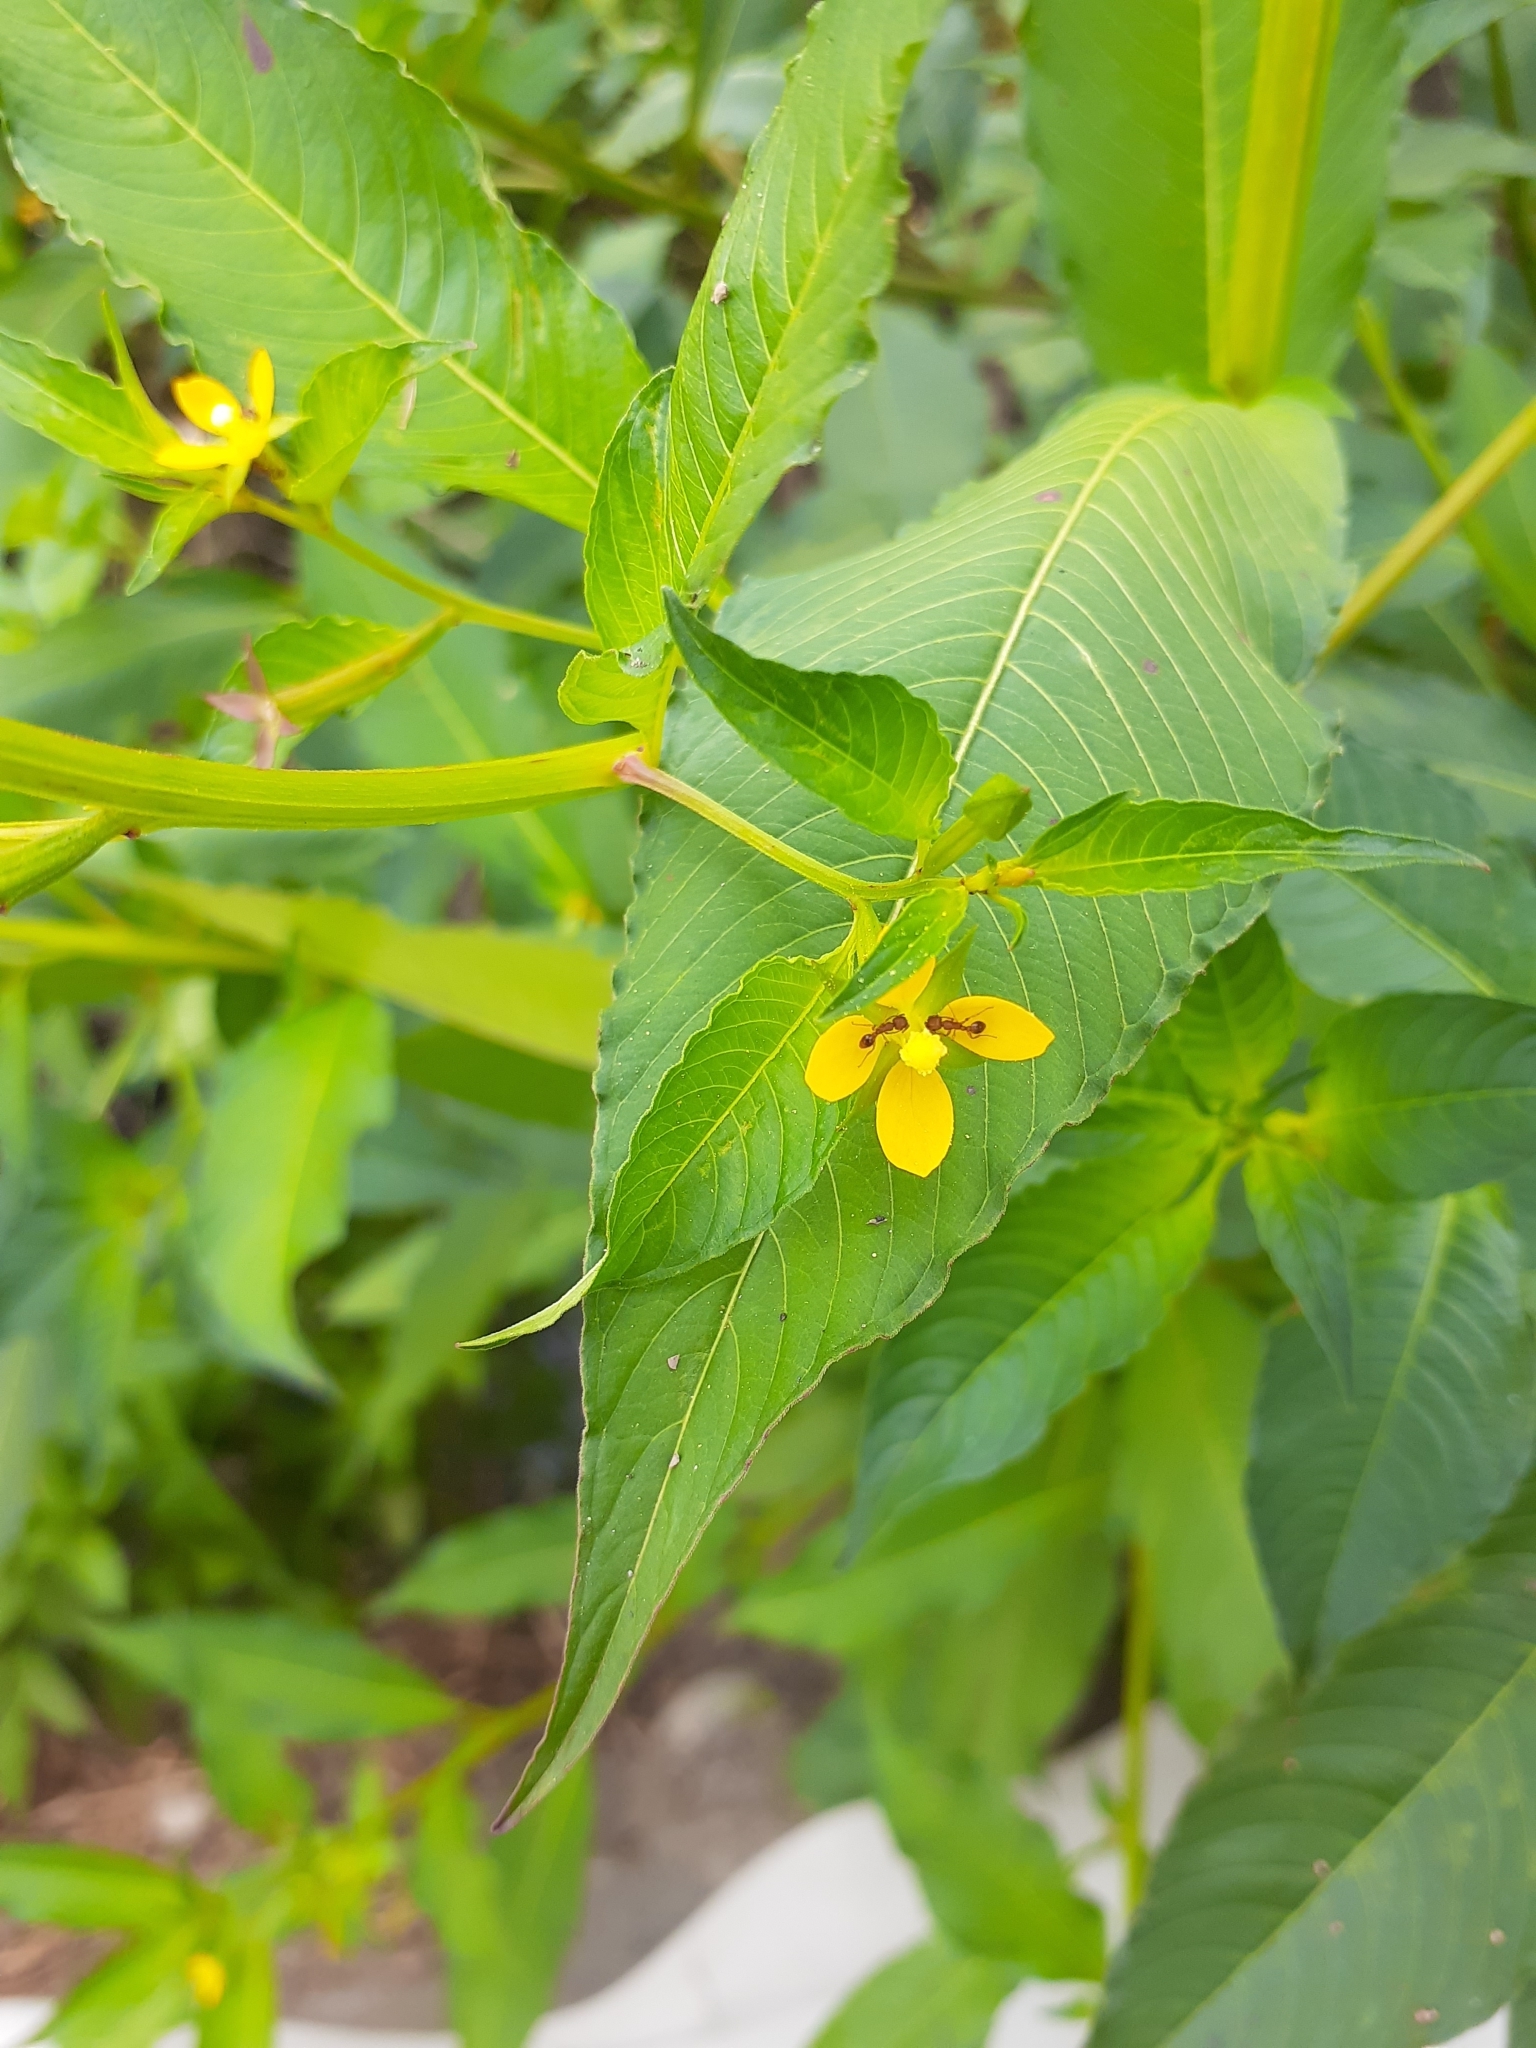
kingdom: Plantae
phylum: Tracheophyta
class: Magnoliopsida
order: Myrtales
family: Onagraceae
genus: Ludwigia
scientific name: Ludwigia erecta
